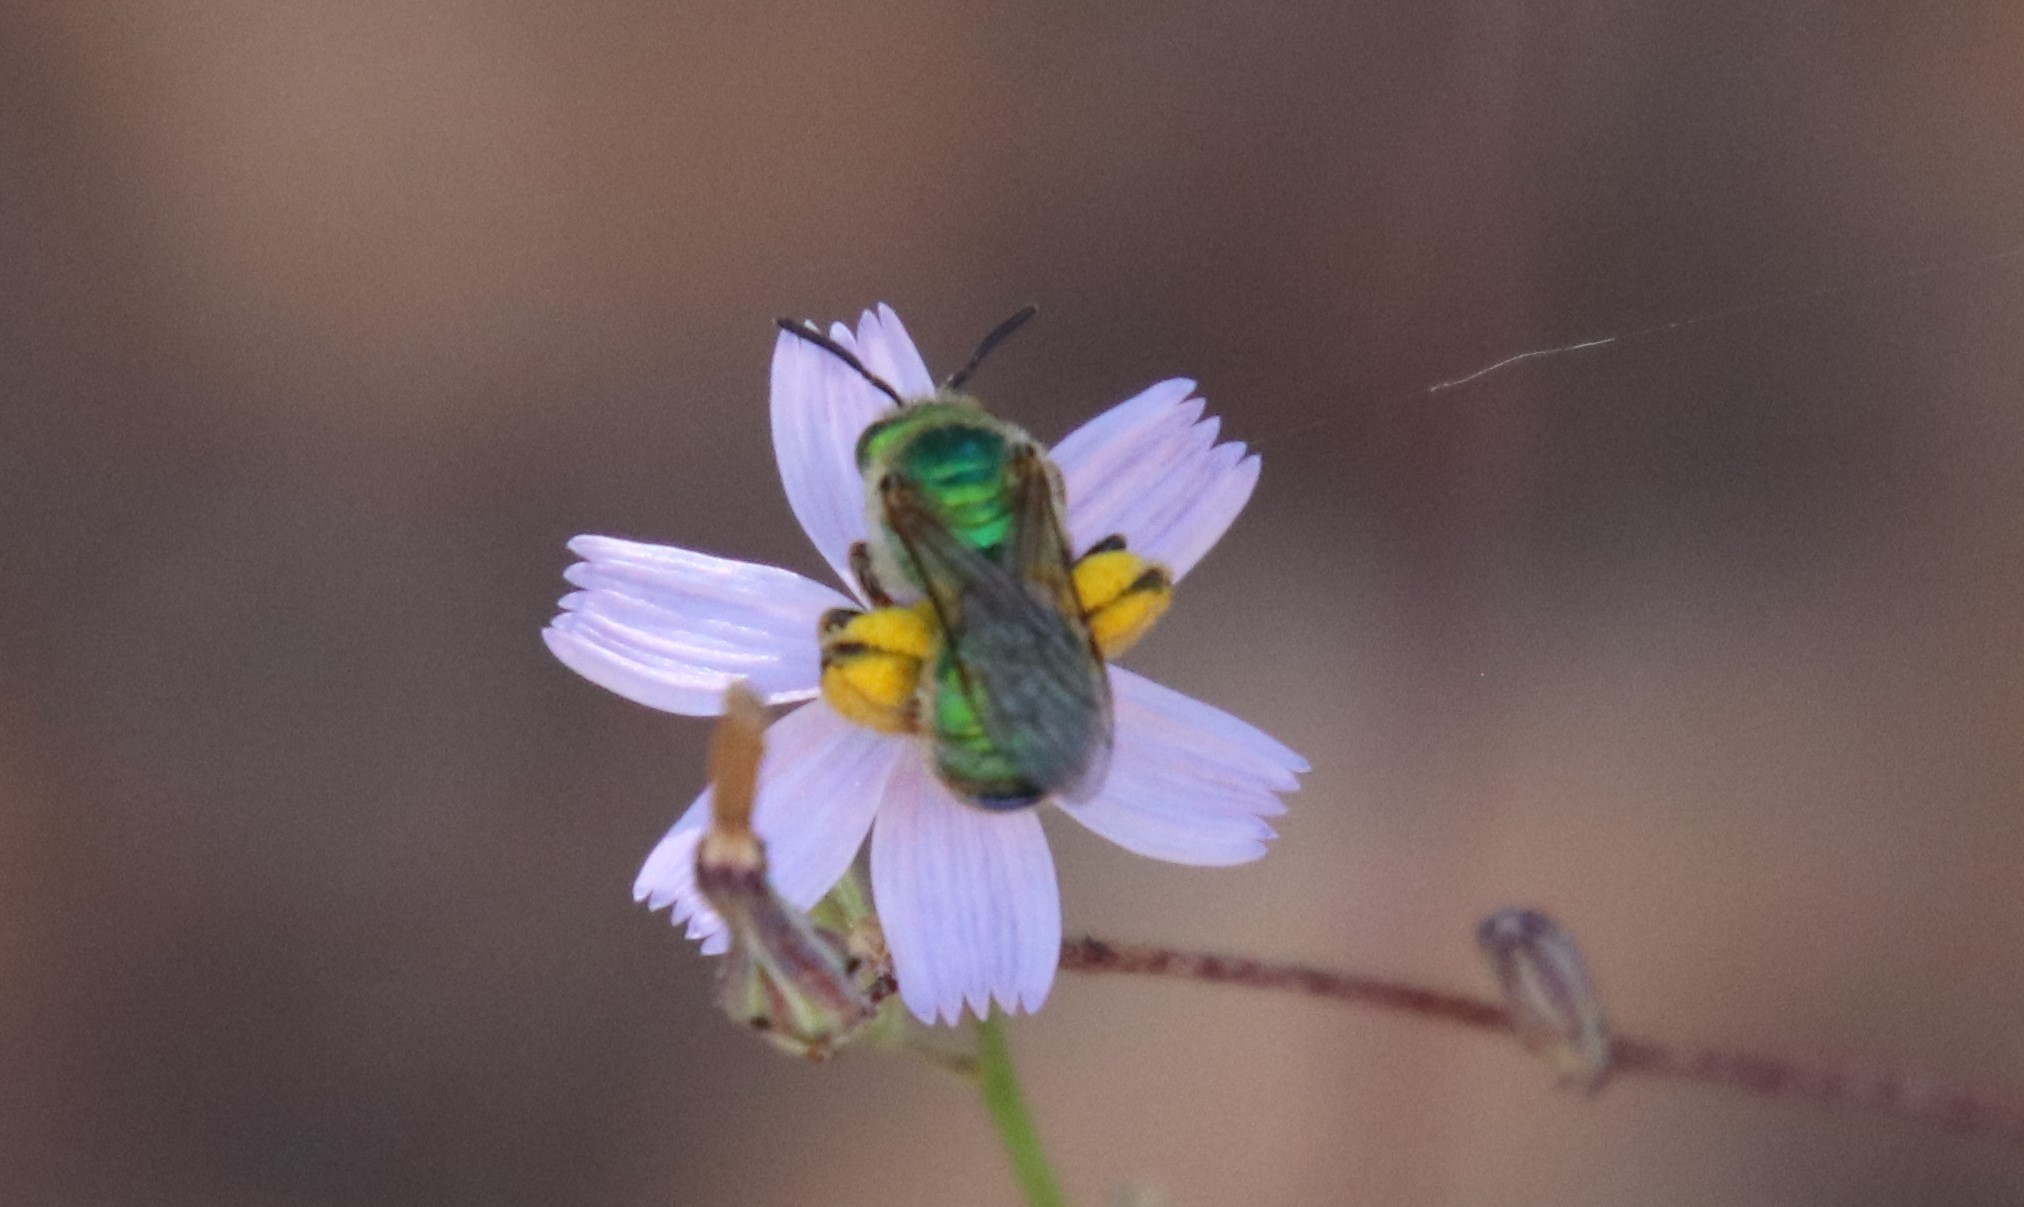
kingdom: Animalia
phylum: Arthropoda
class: Insecta
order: Hymenoptera
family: Halictidae
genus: Agapostemon
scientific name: Agapostemon texanus
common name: Texas striped sweat bee
